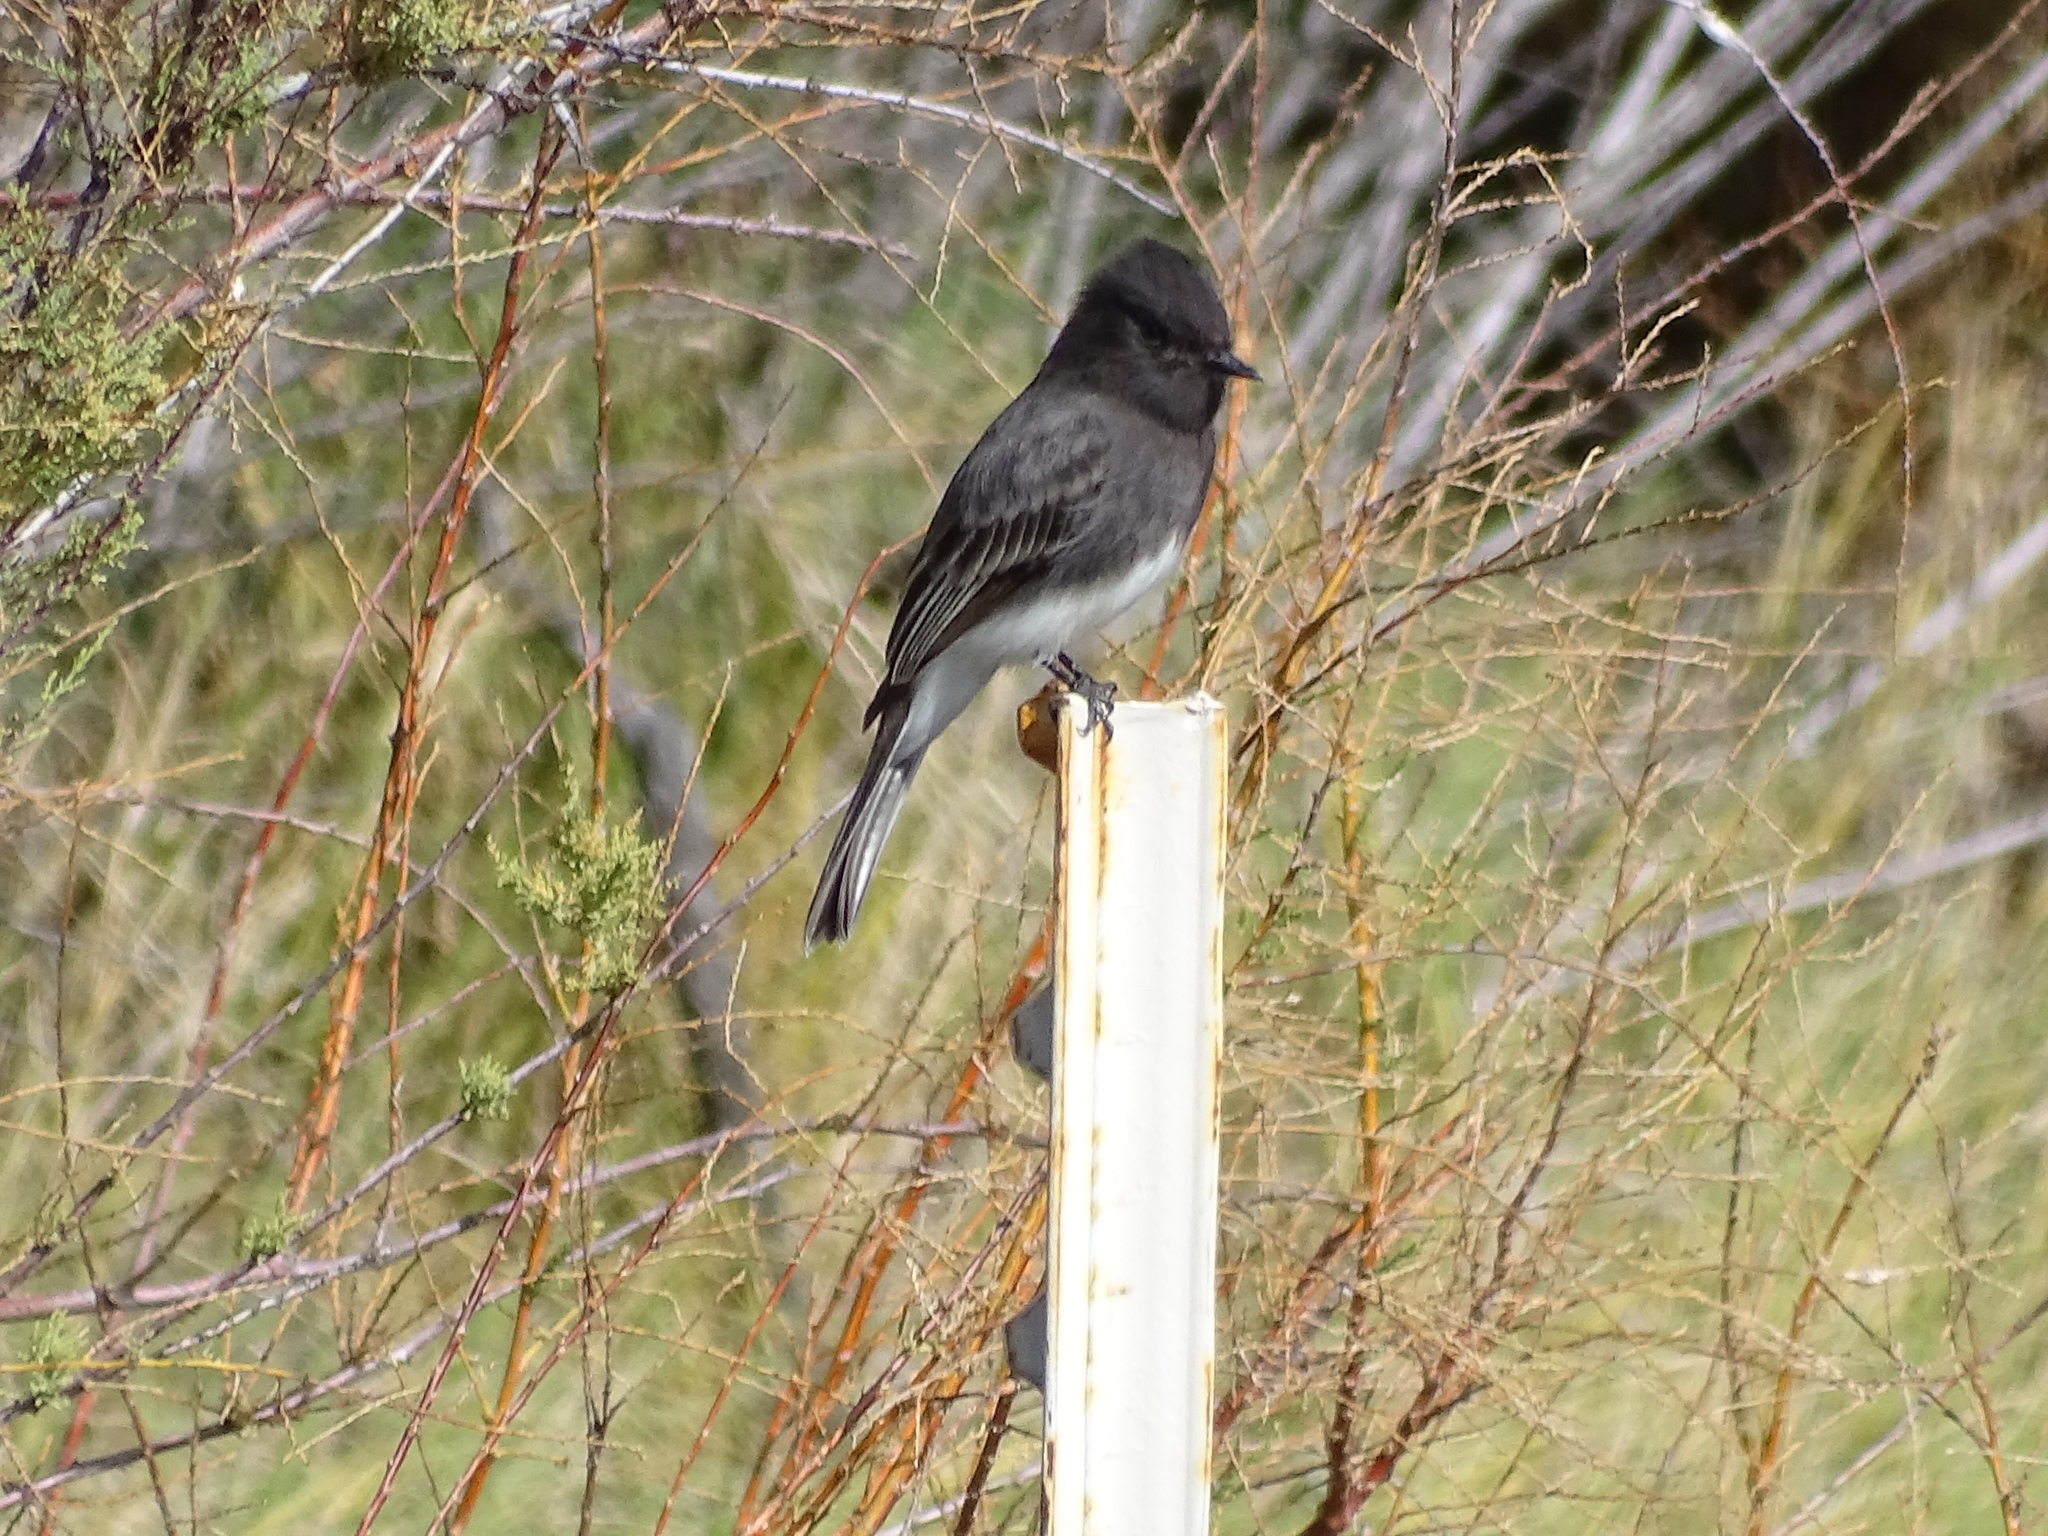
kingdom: Animalia
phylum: Chordata
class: Aves
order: Passeriformes
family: Tyrannidae
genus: Sayornis
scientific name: Sayornis nigricans
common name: Black phoebe
